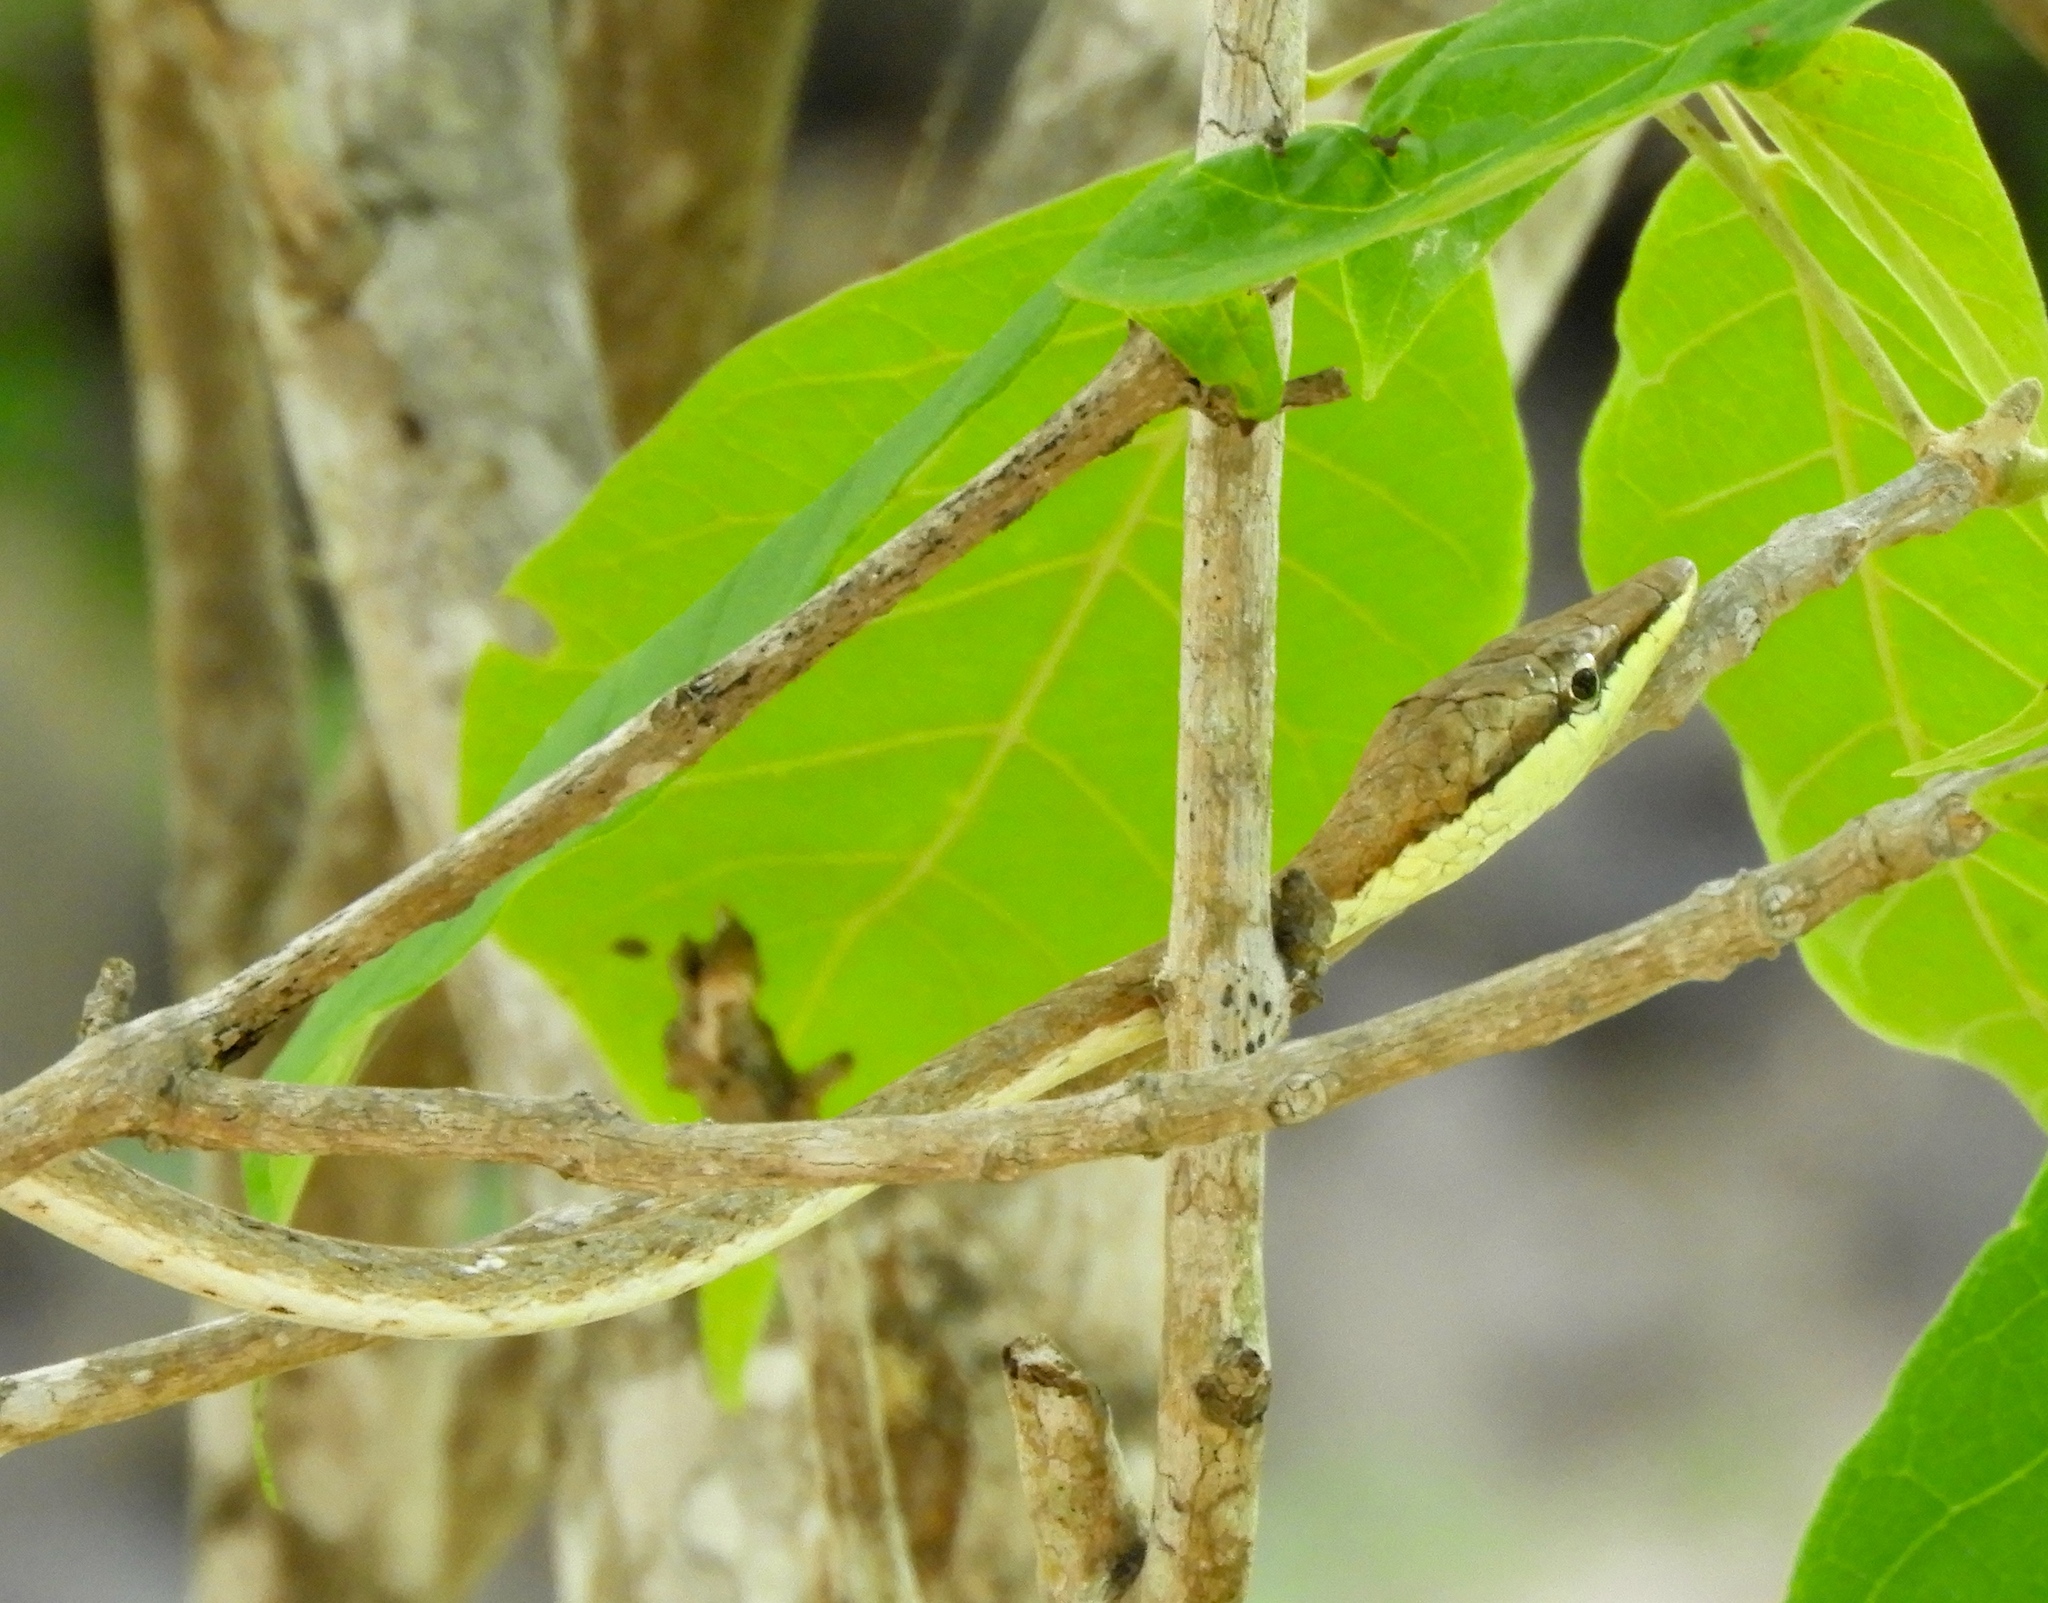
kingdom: Animalia
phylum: Chordata
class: Squamata
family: Colubridae
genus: Oxybelis
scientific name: Oxybelis microphthalmus
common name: Thrornscrub vine snake
